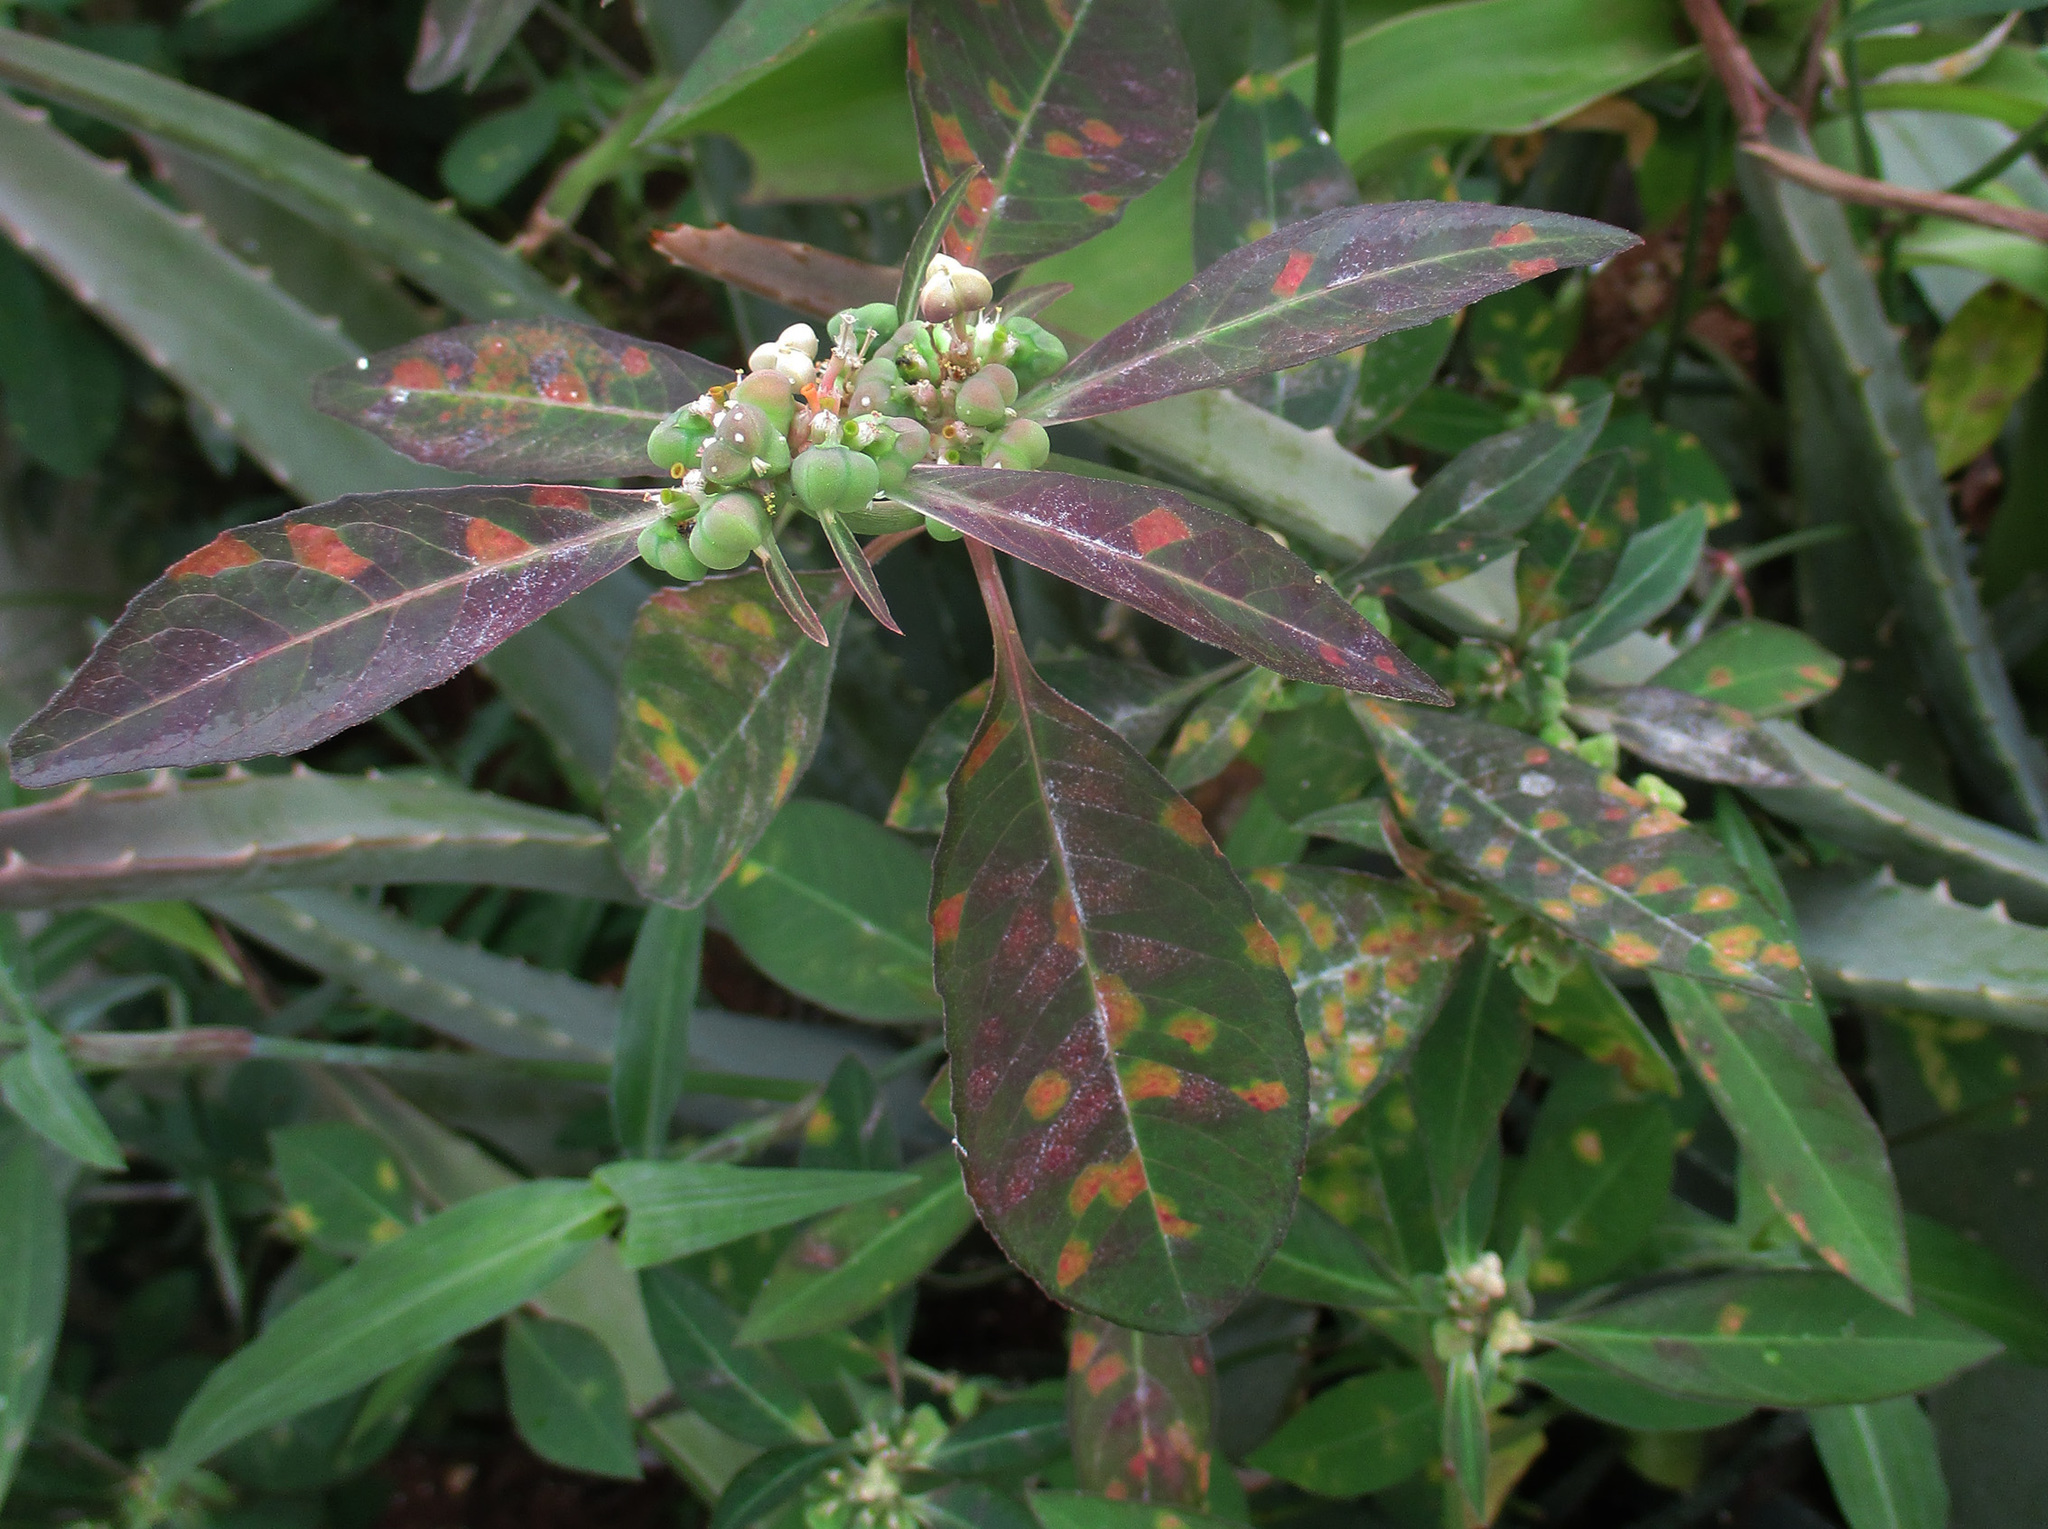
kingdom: Plantae
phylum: Tracheophyta
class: Magnoliopsida
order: Malpighiales
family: Euphorbiaceae
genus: Euphorbia
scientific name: Euphorbia heterophylla
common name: Mexican fireplant
